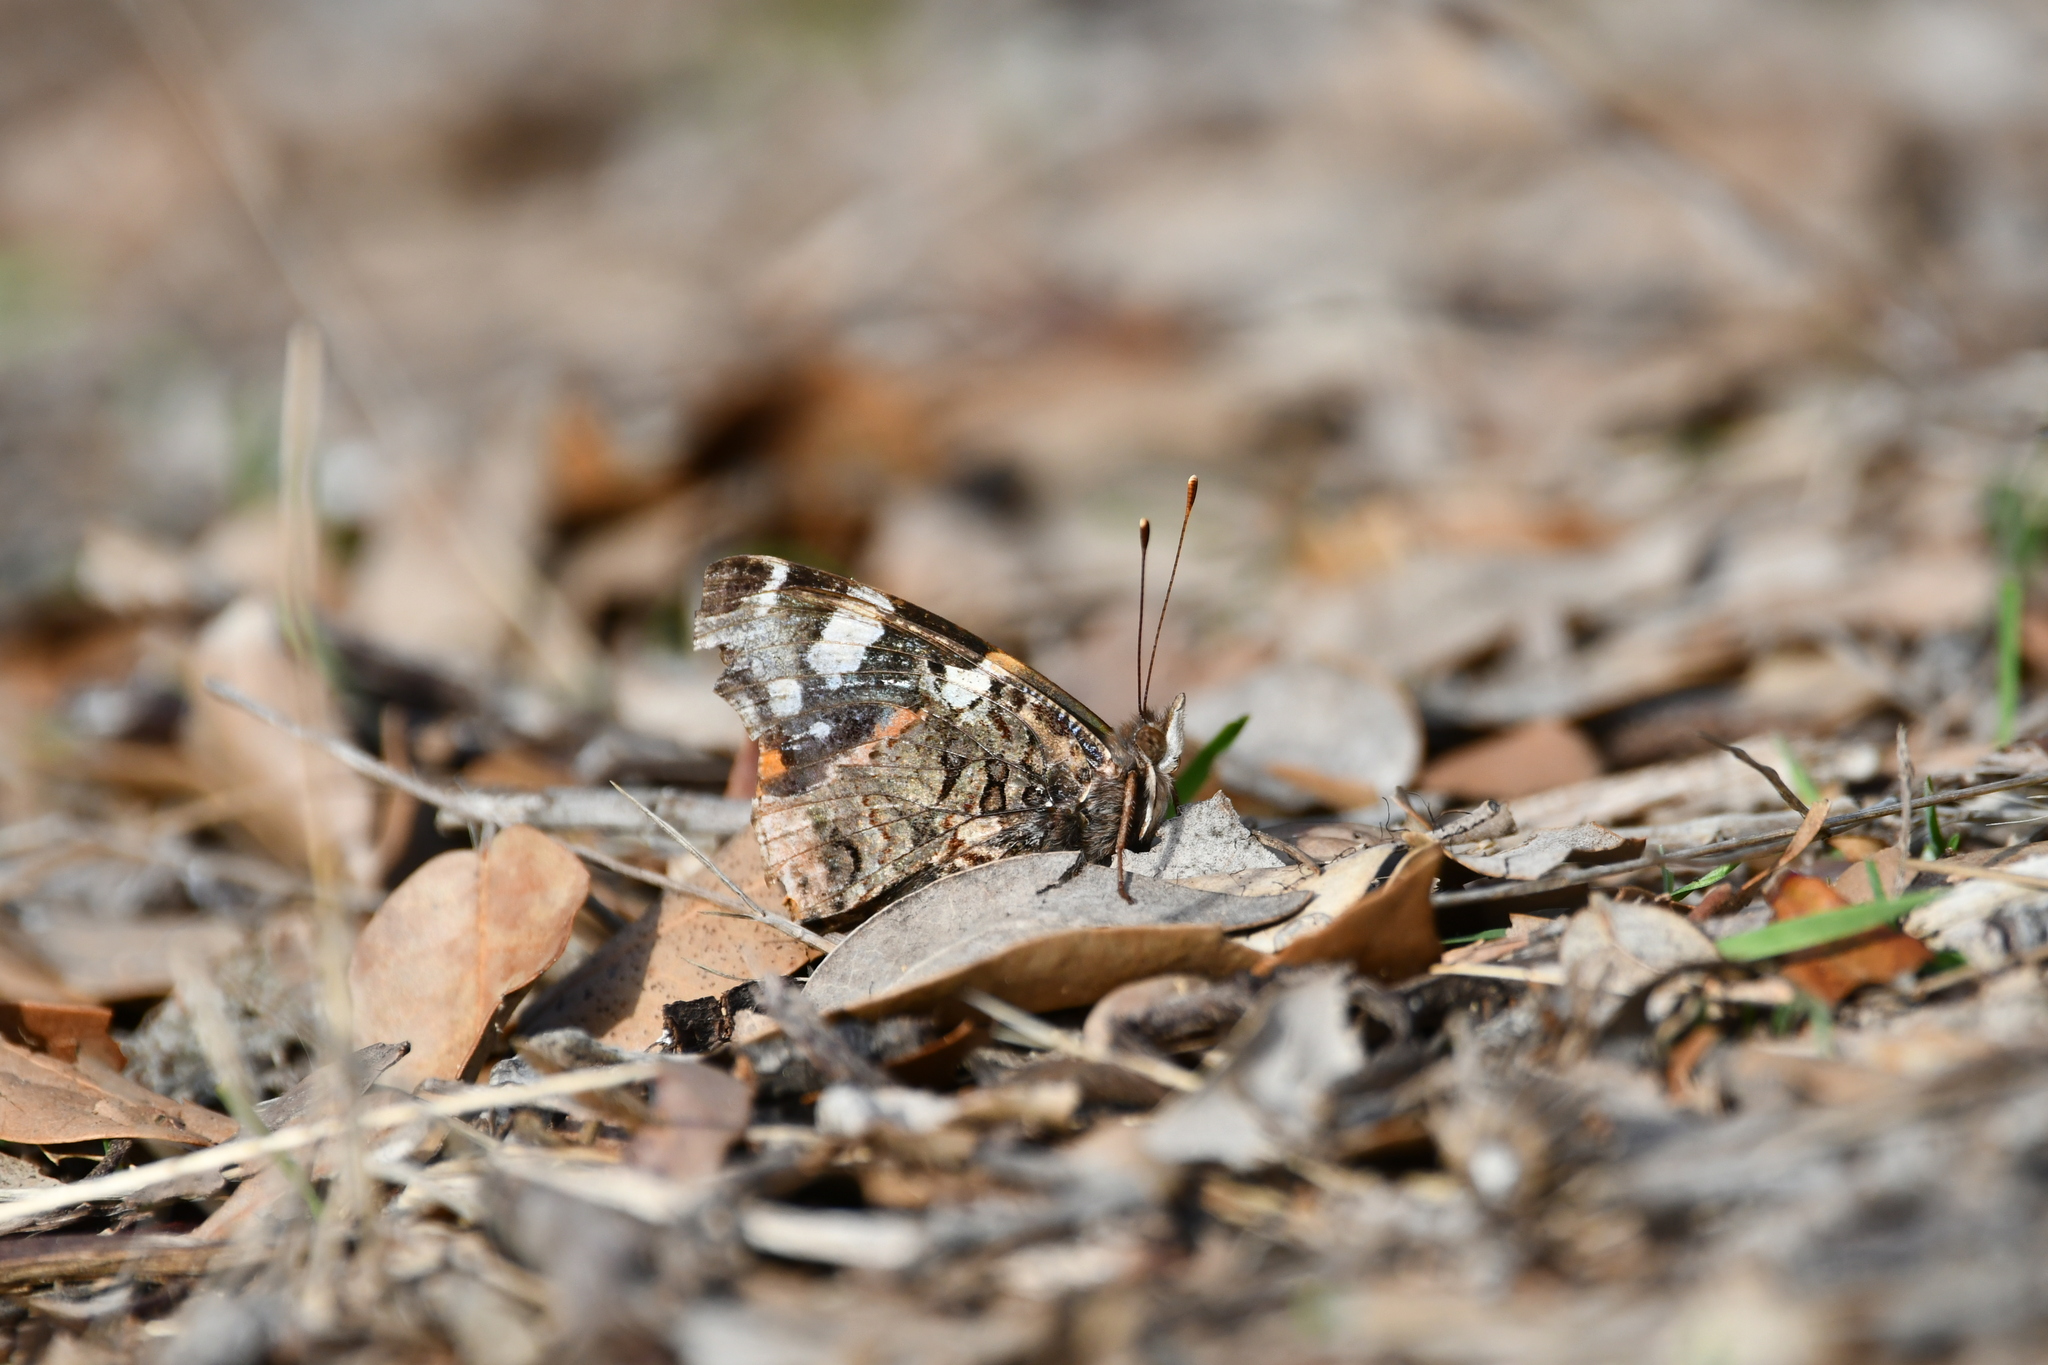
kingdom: Animalia
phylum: Arthropoda
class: Insecta
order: Lepidoptera
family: Nymphalidae
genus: Vanessa
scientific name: Vanessa atalanta
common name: Red admiral
